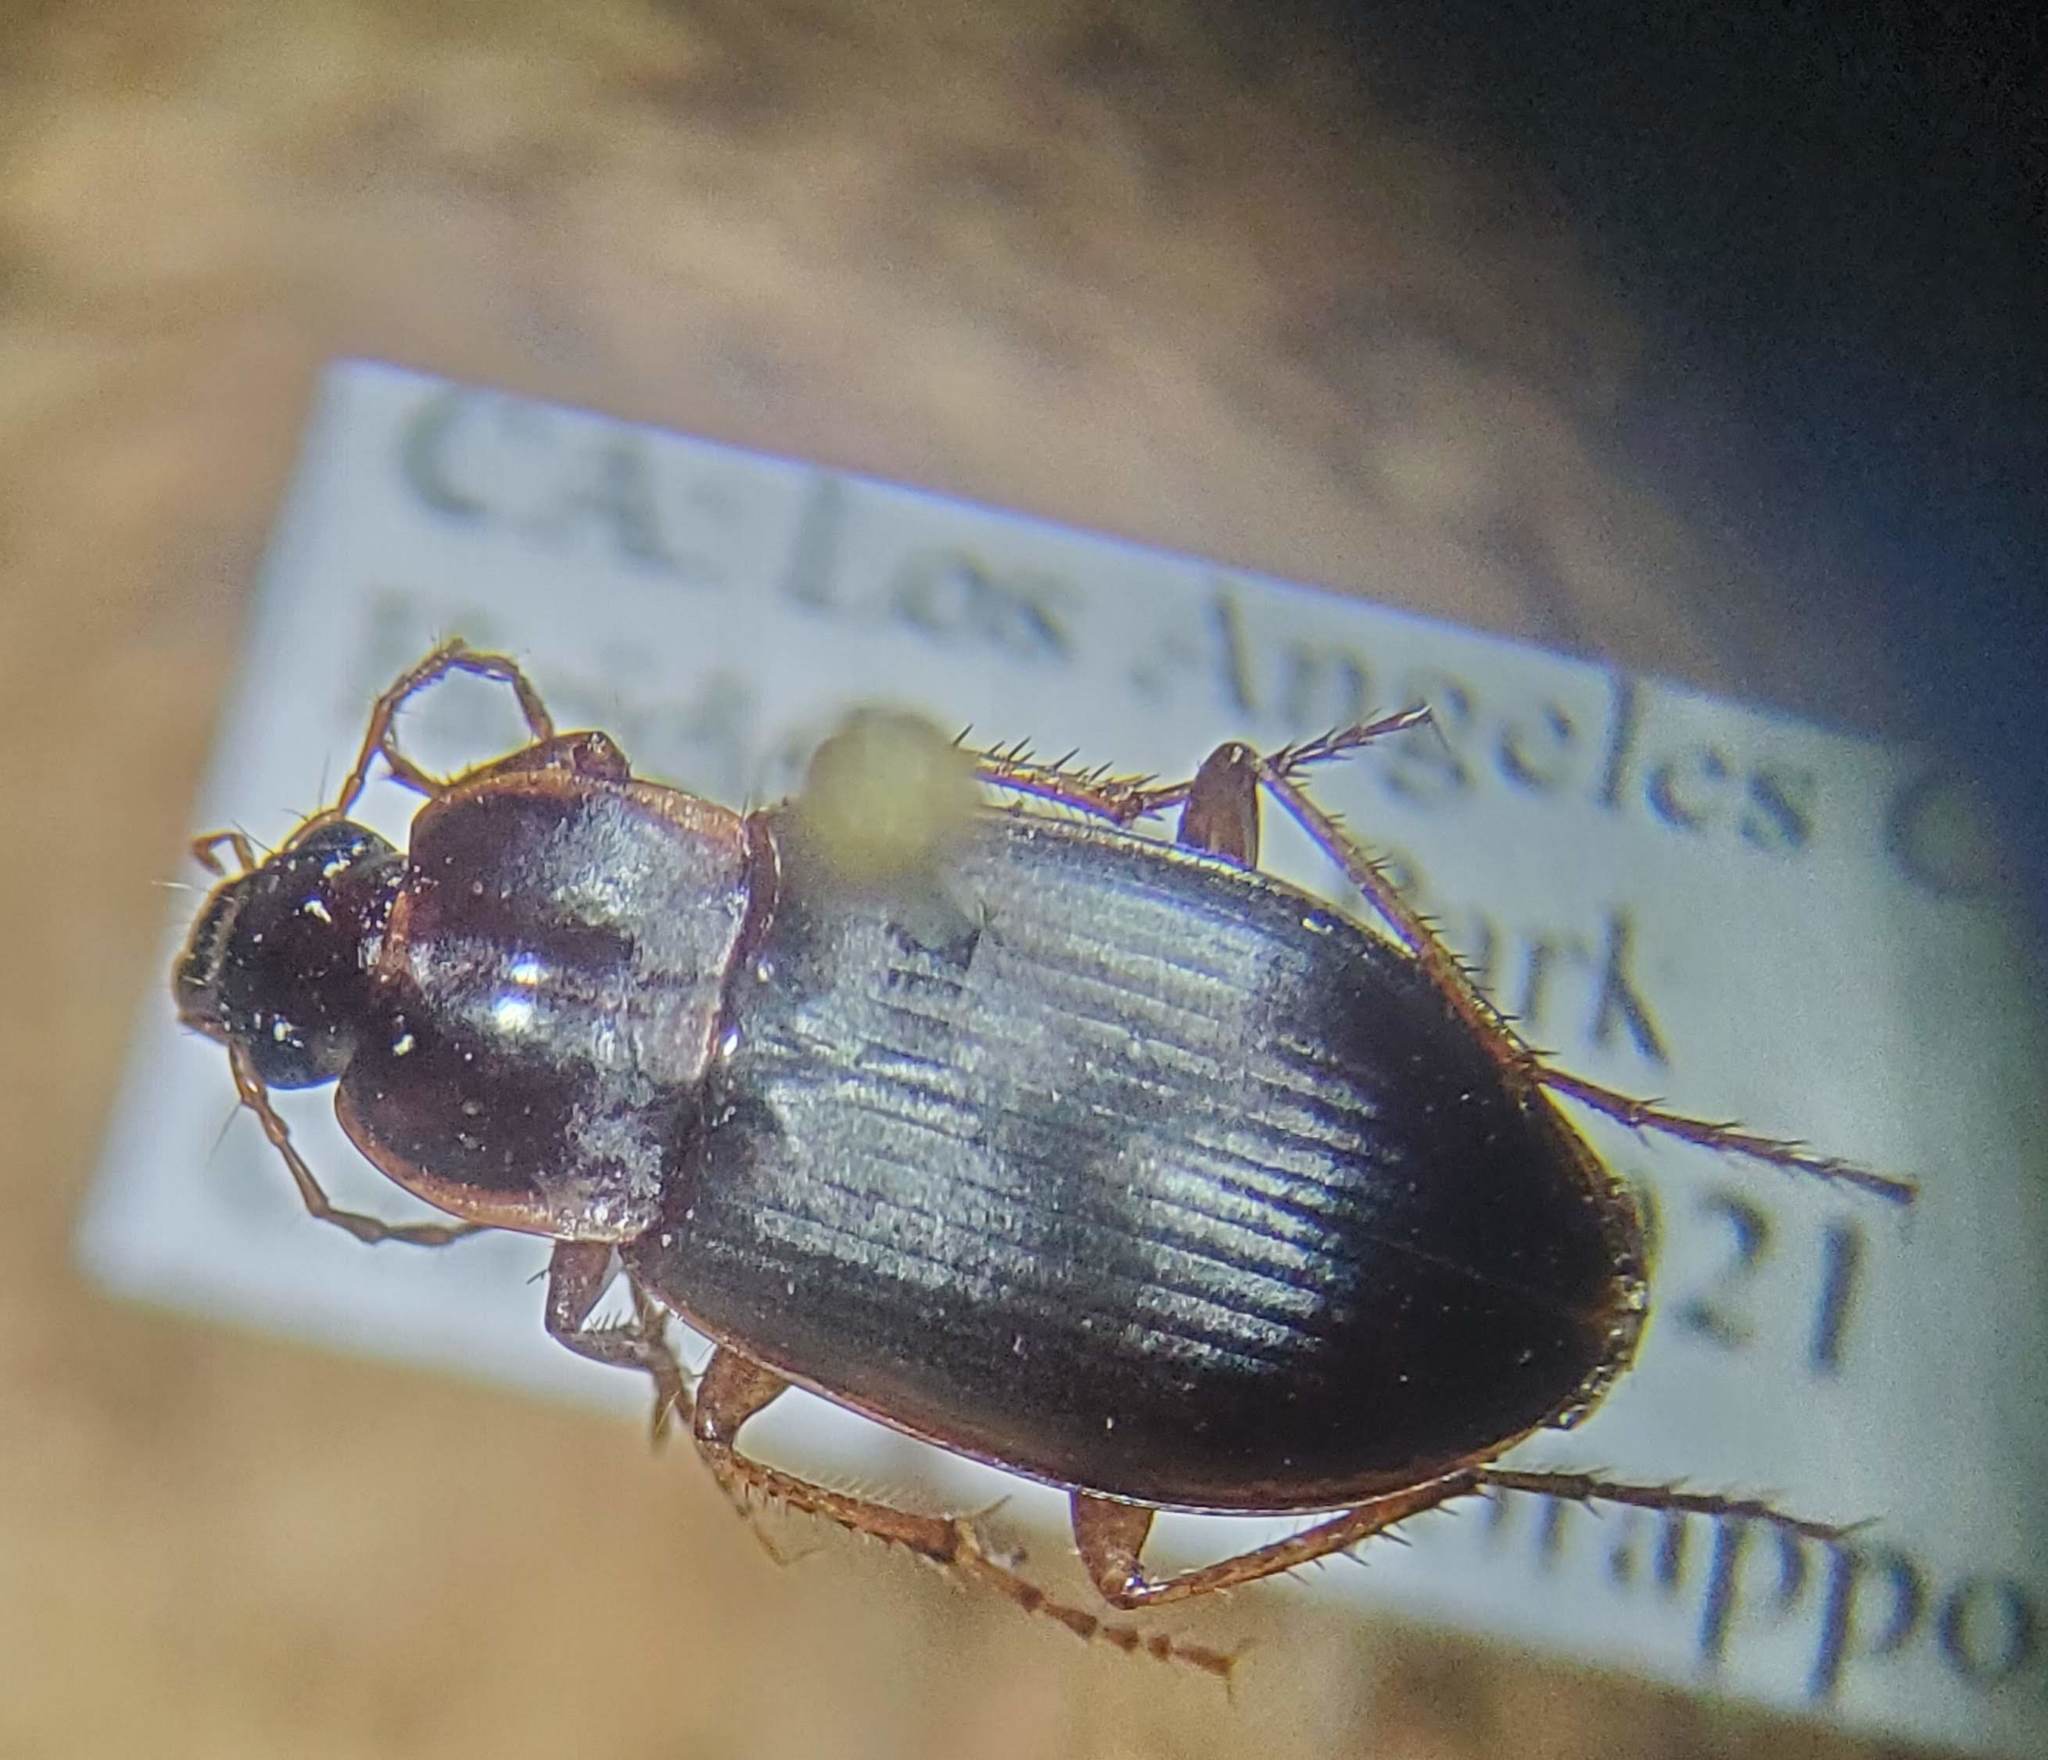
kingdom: Animalia
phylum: Arthropoda
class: Insecta
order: Coleoptera
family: Carabidae
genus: Calathus
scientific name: Calathus ruficollis
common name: Red-collared harp ground beetle
